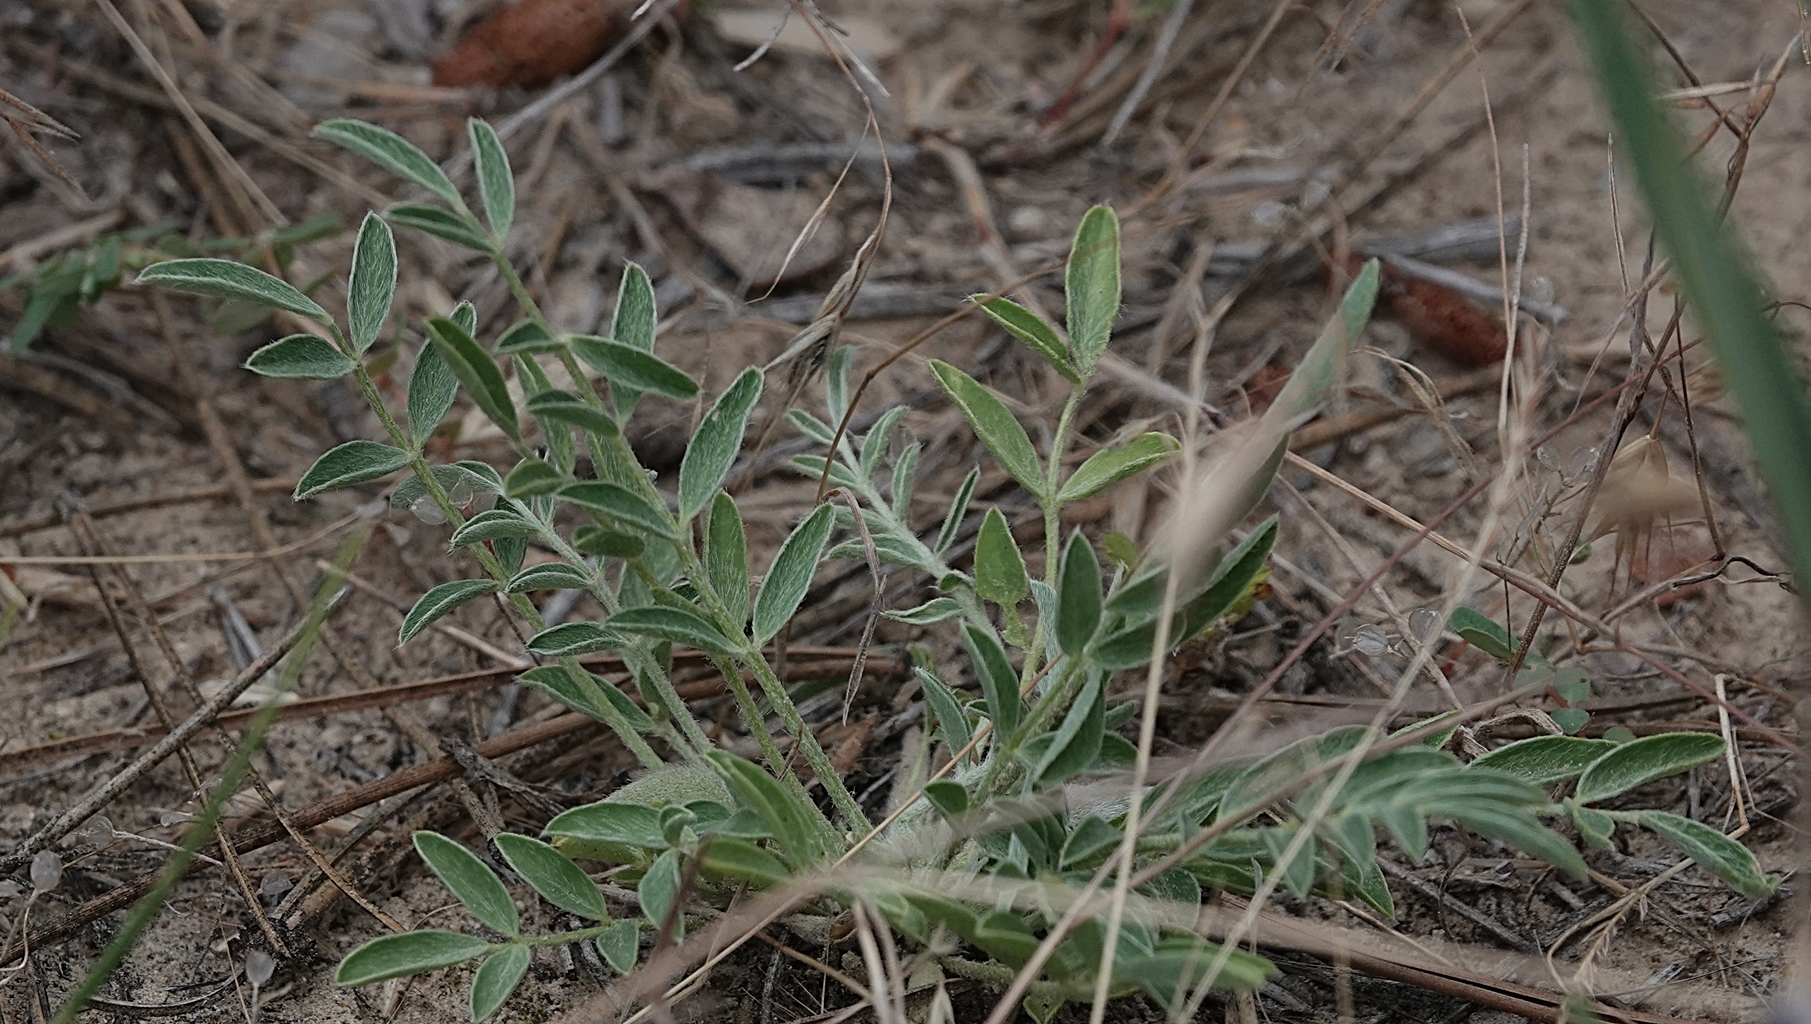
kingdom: Plantae
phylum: Tracheophyta
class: Magnoliopsida
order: Fabales
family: Fabaceae
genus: Astragalus
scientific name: Astragalus lotiflorus
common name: Lotus milk-vetch
